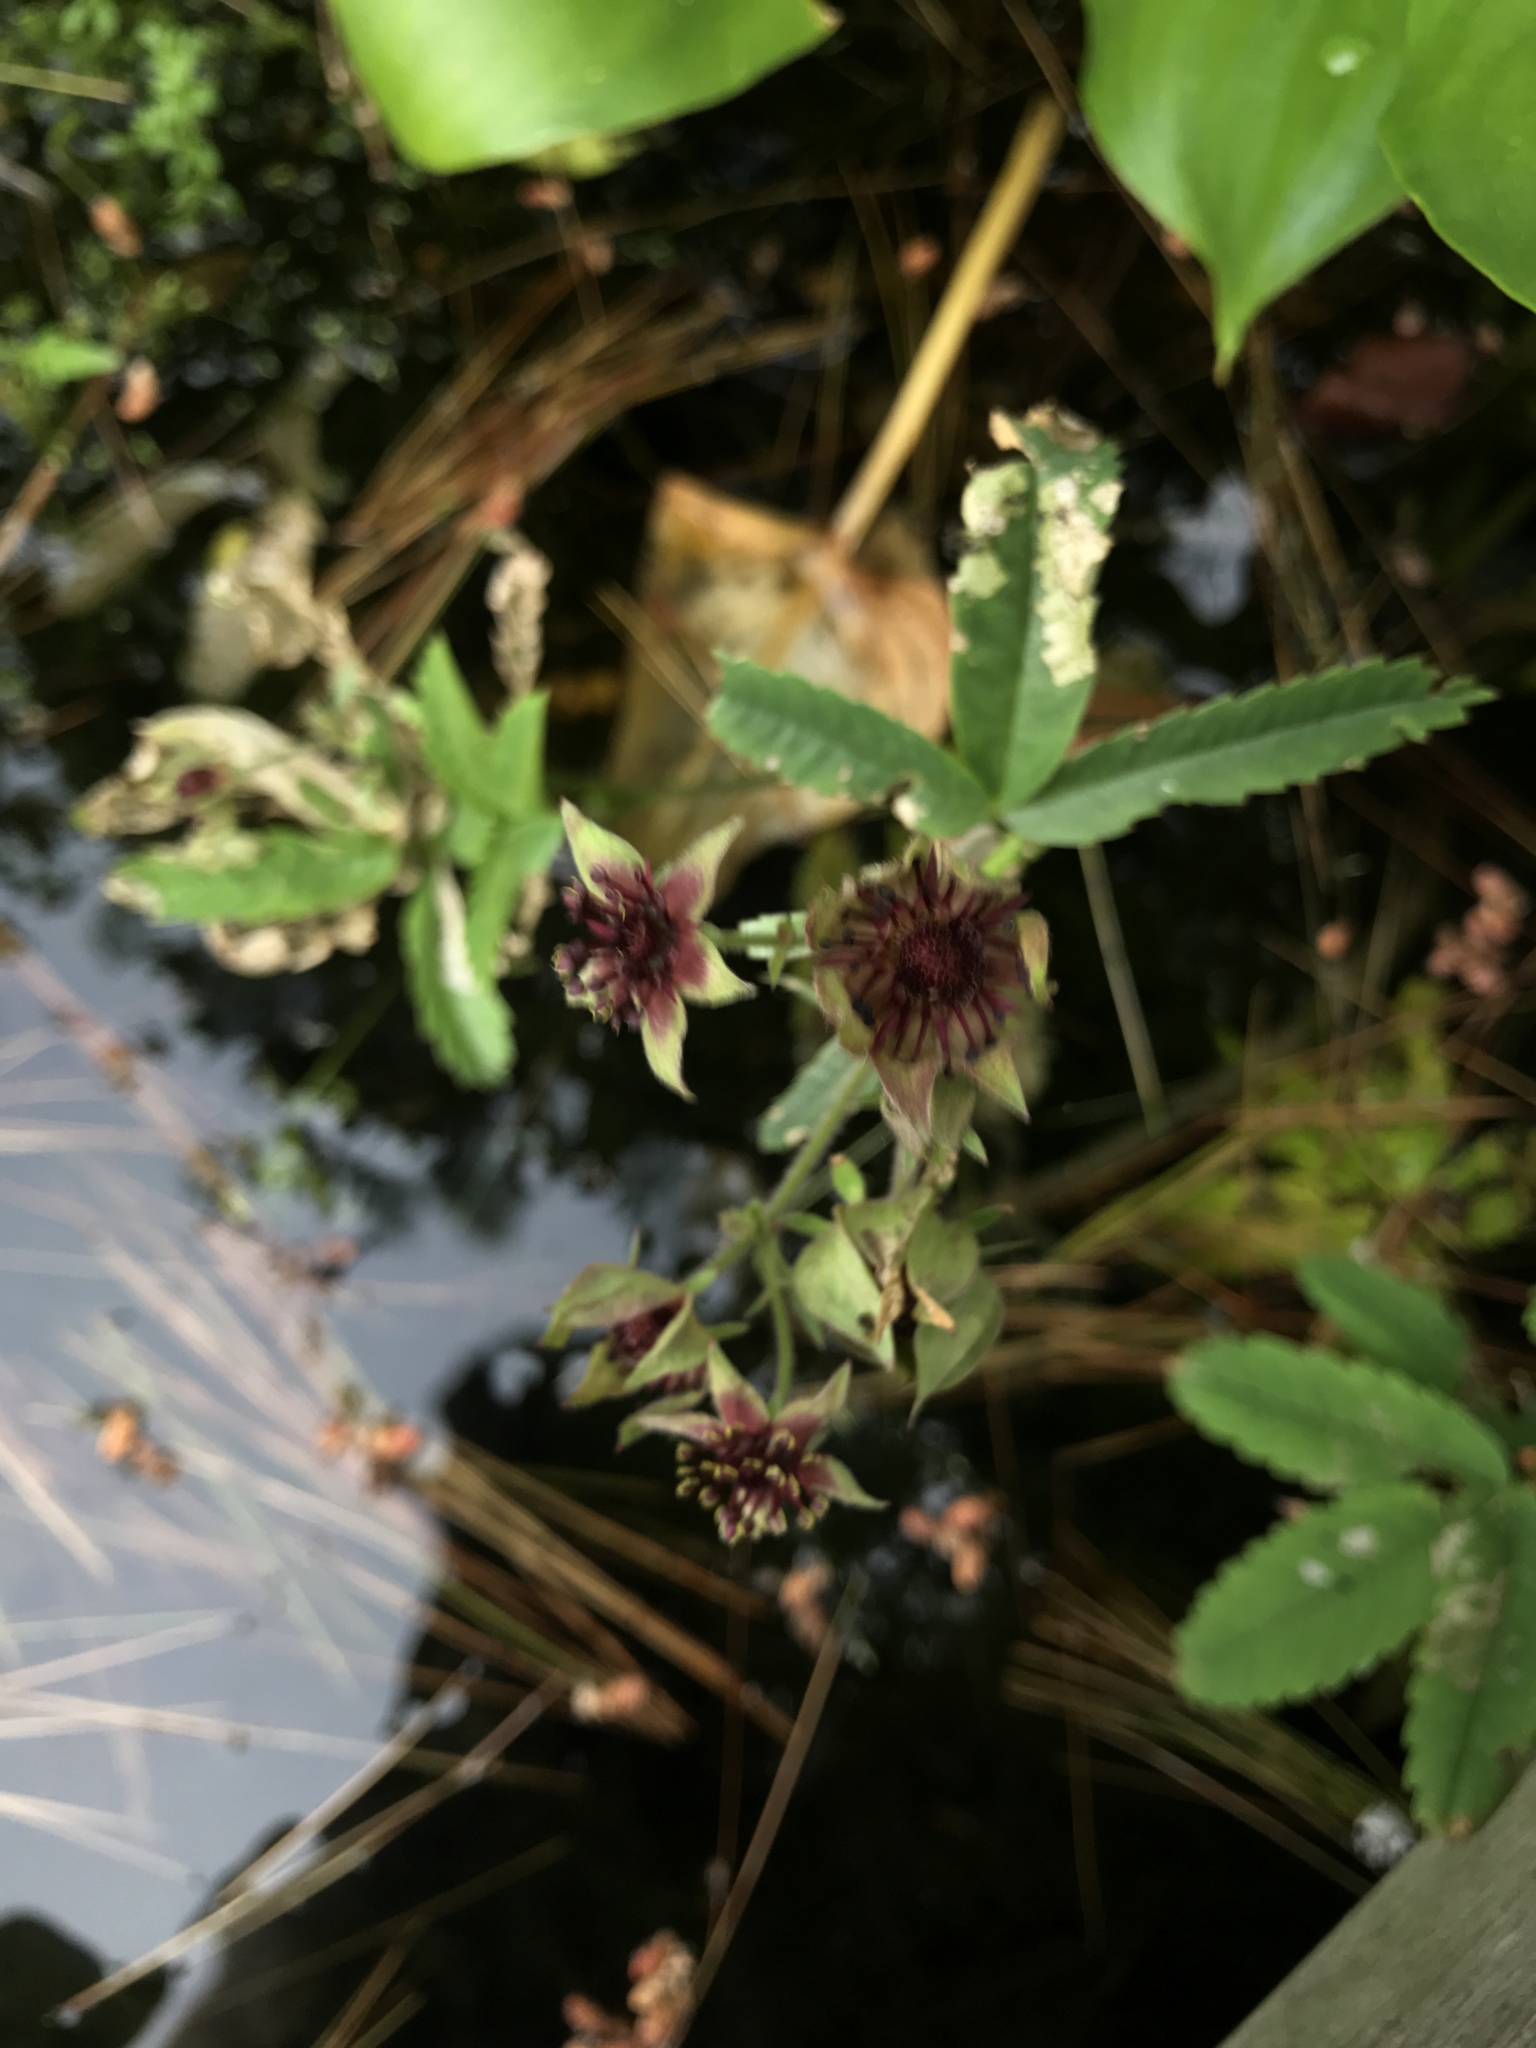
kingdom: Plantae
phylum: Tracheophyta
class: Magnoliopsida
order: Rosales
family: Rosaceae
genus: Comarum
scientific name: Comarum palustre
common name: Marsh cinquefoil
